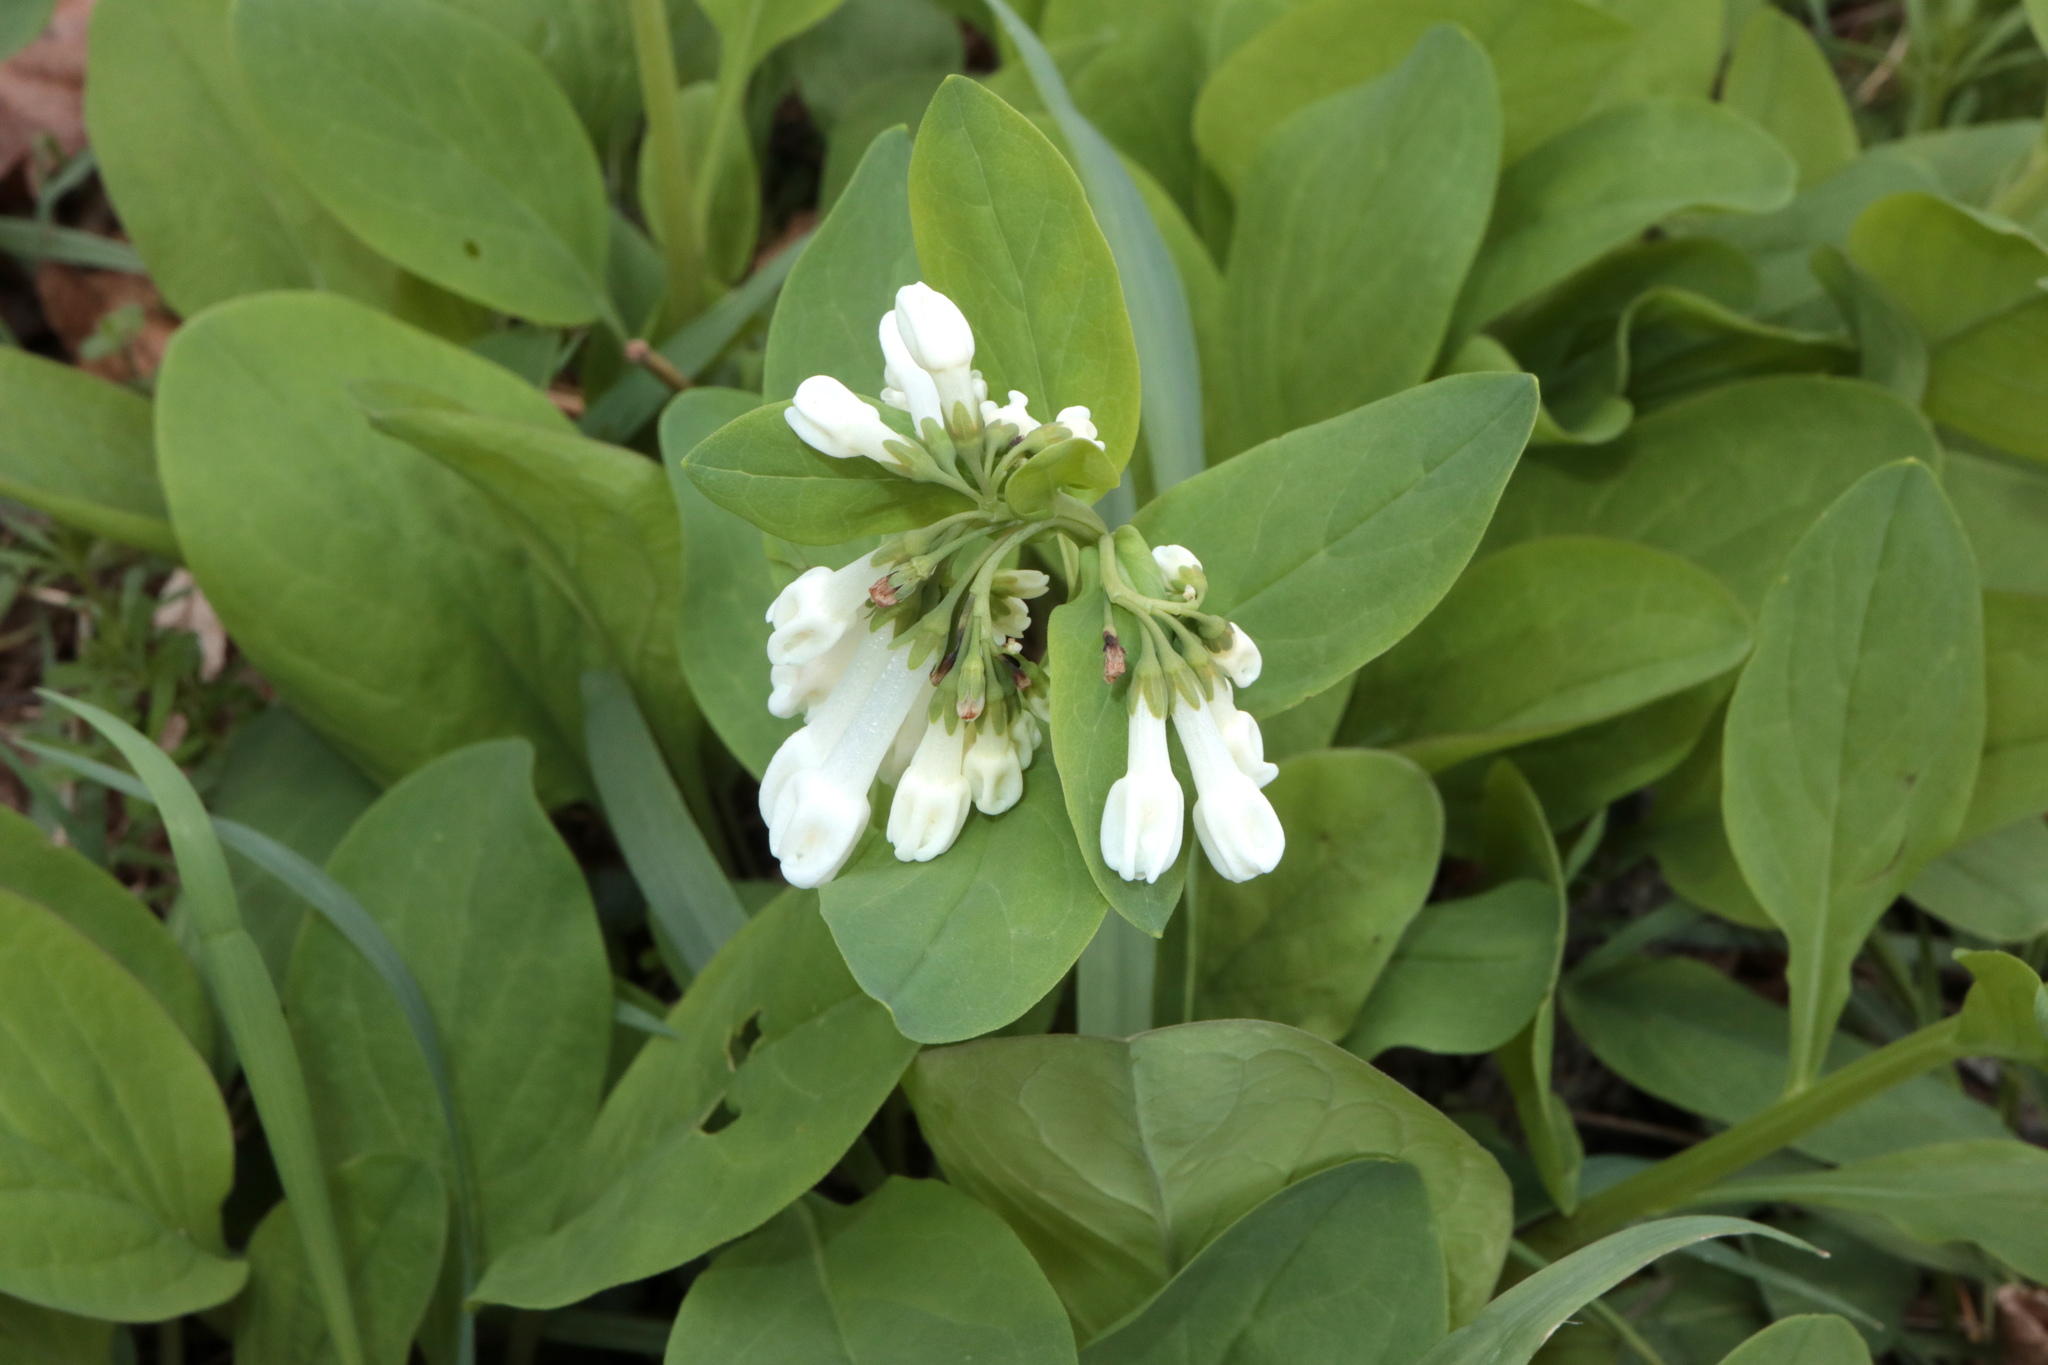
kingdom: Plantae
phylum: Tracheophyta
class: Magnoliopsida
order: Boraginales
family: Boraginaceae
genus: Mertensia
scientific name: Mertensia virginica
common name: Virginia bluebells
